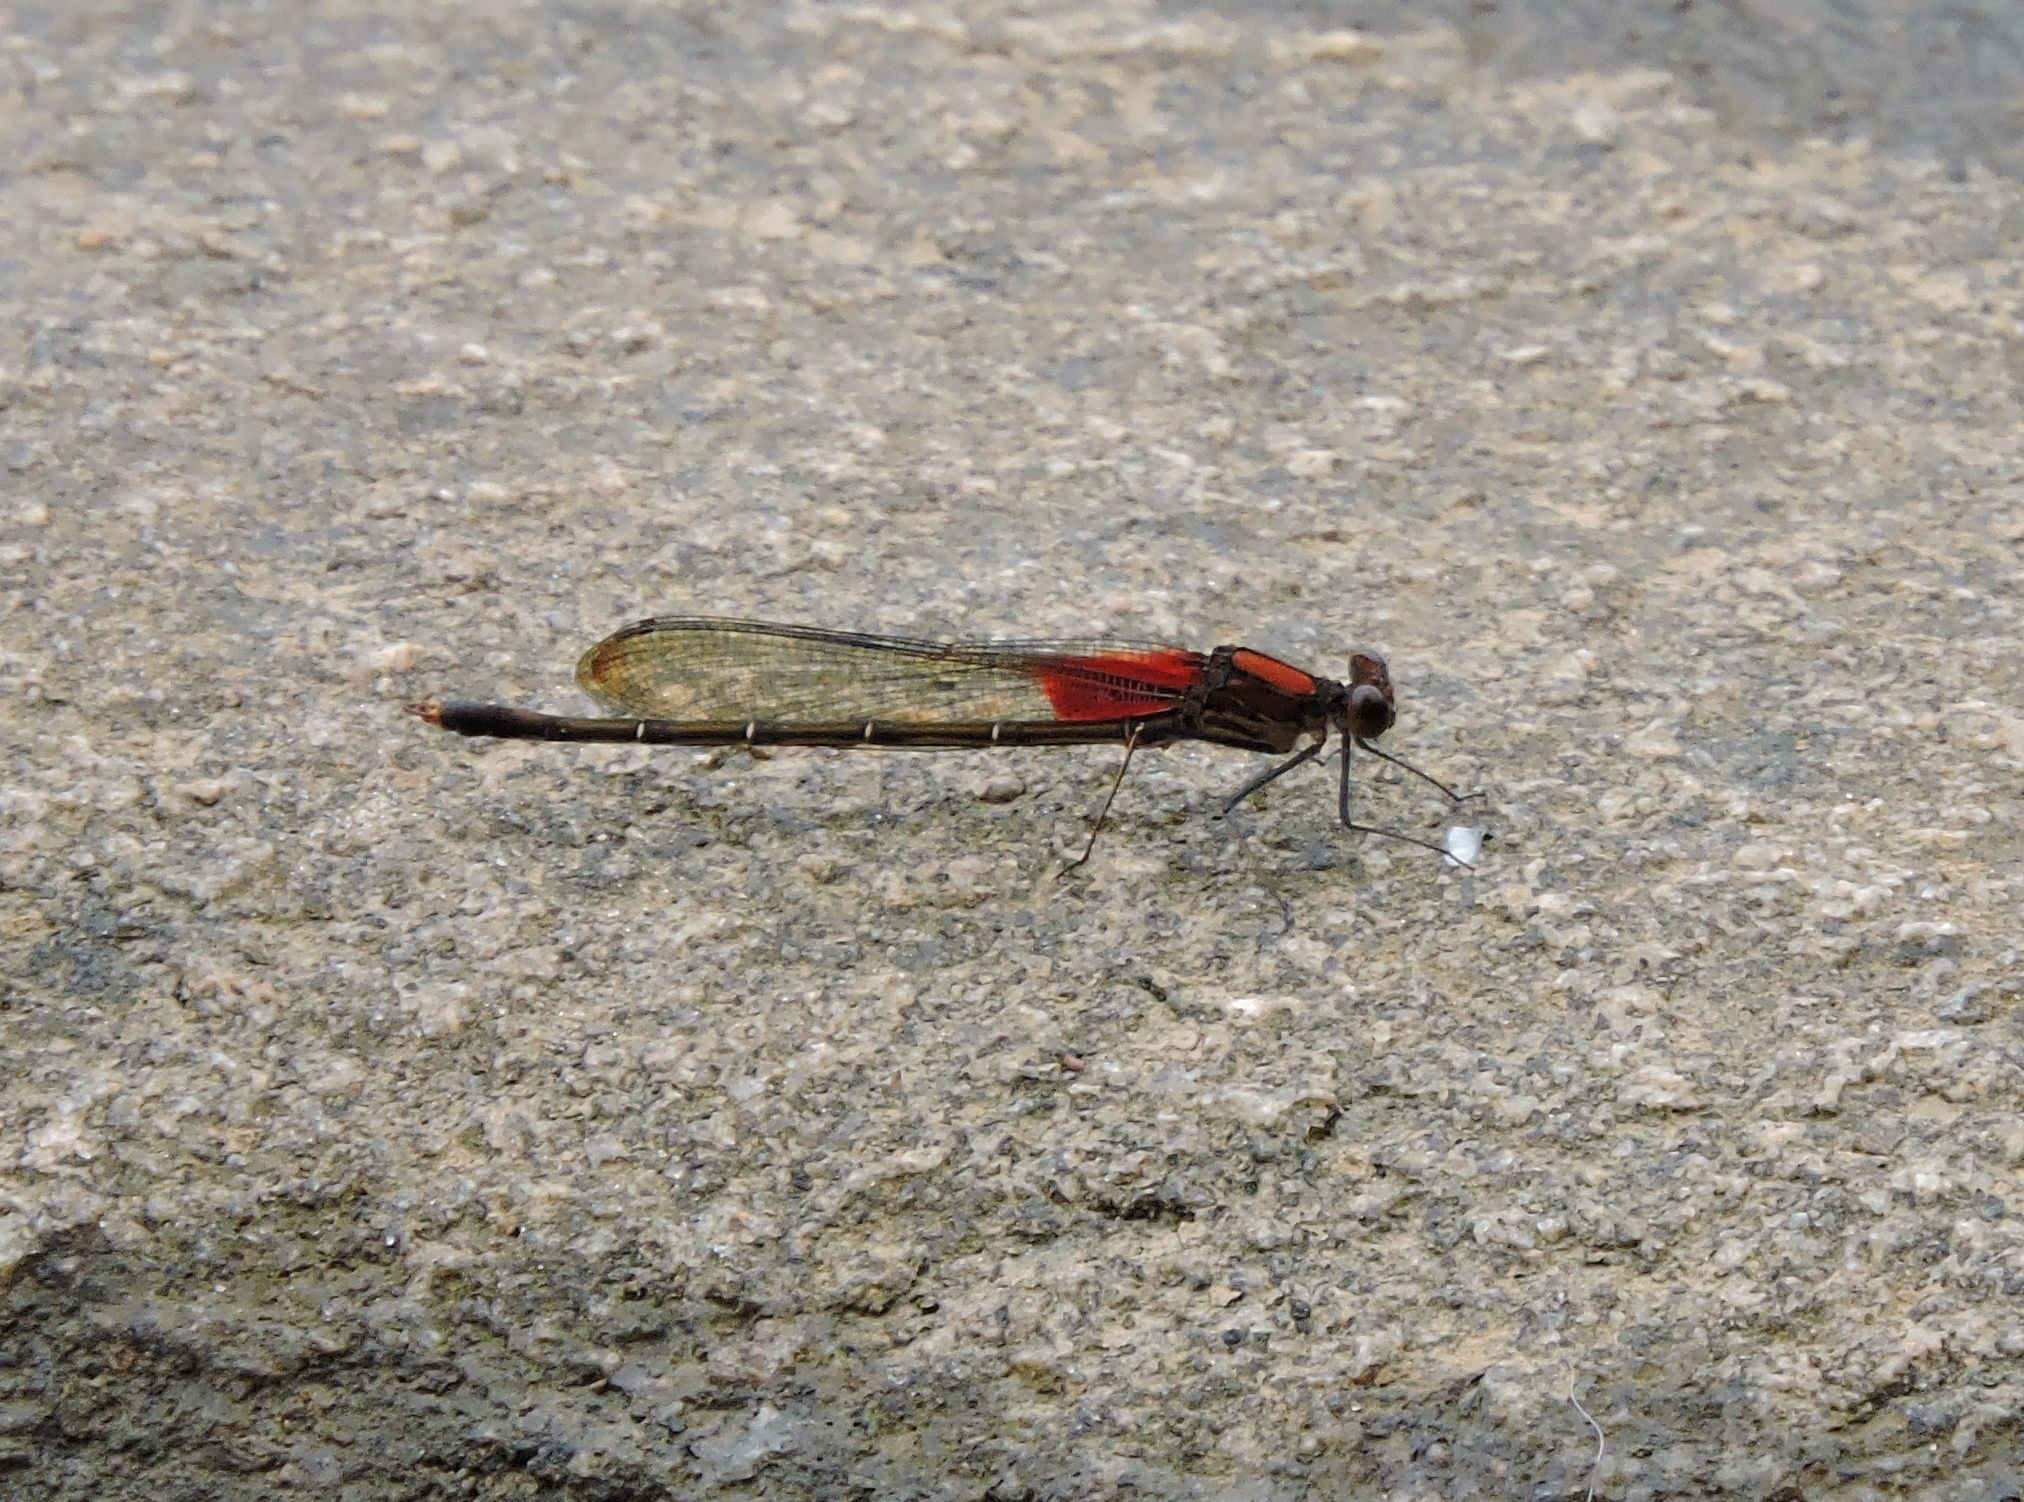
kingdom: Animalia
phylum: Arthropoda
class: Insecta
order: Odonata
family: Calopterygidae
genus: Hetaerina
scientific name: Hetaerina americana
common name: American rubyspot
